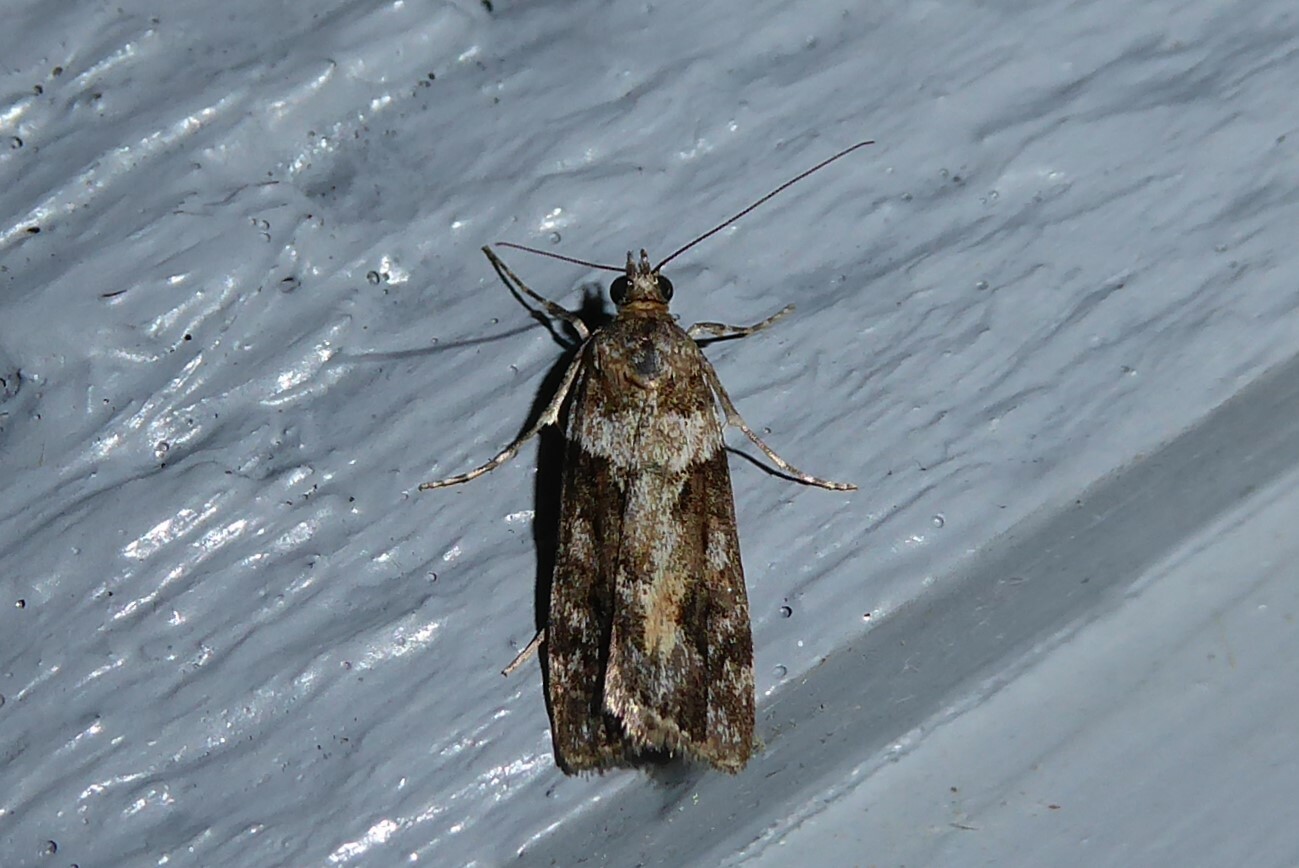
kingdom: Animalia
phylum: Arthropoda
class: Insecta
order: Lepidoptera
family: Crambidae
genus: Eudonia
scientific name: Eudonia submarginalis
